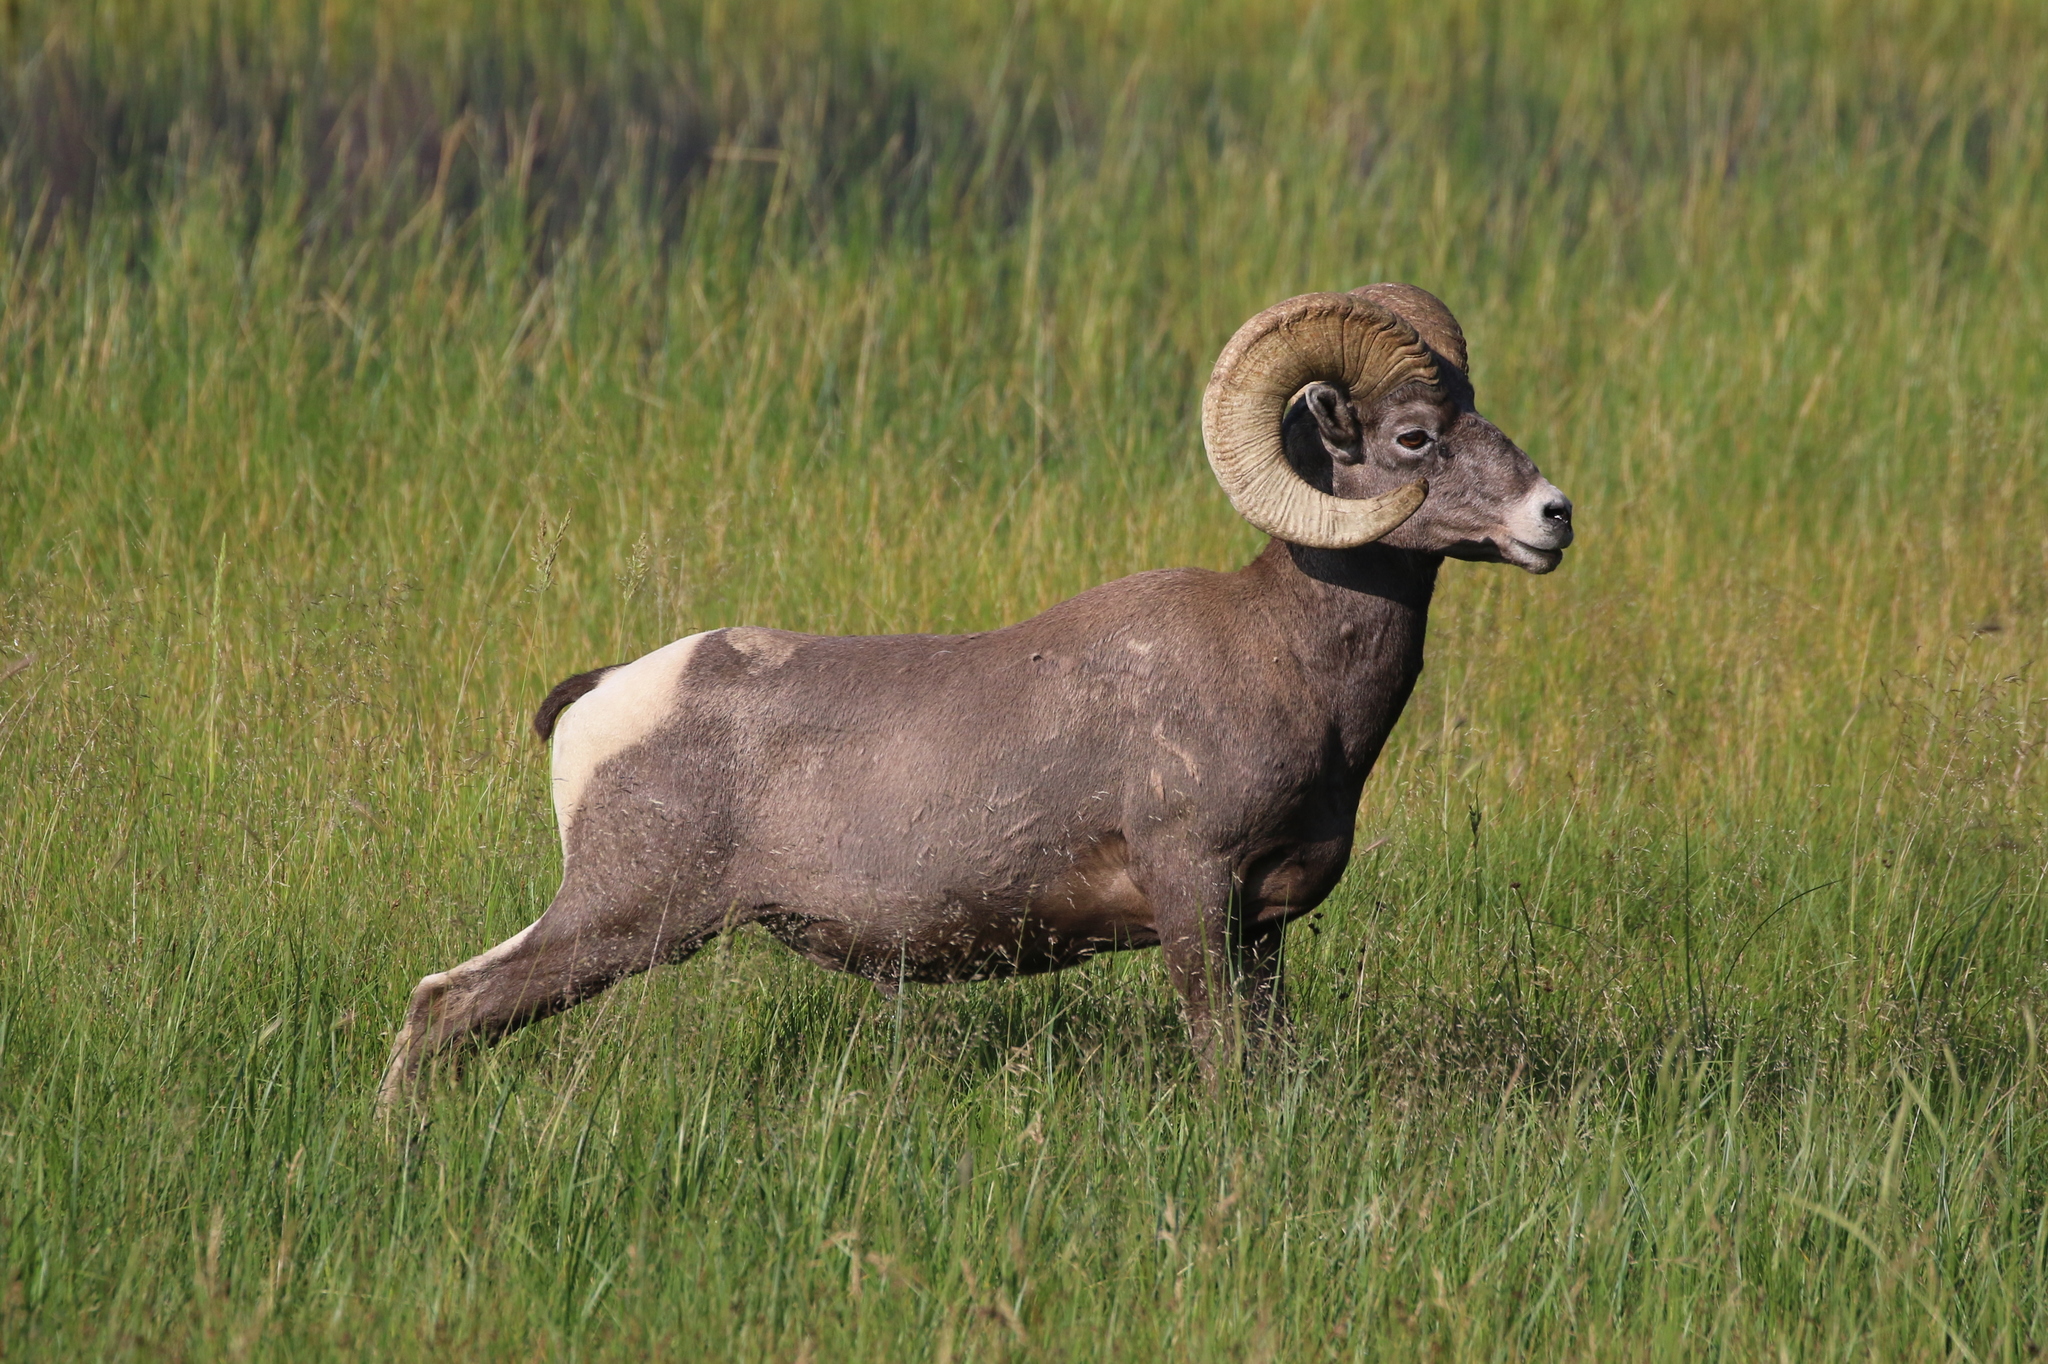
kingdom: Animalia
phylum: Chordata
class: Mammalia
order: Artiodactyla
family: Bovidae
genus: Ovis
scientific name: Ovis canadensis
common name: Bighorn sheep
